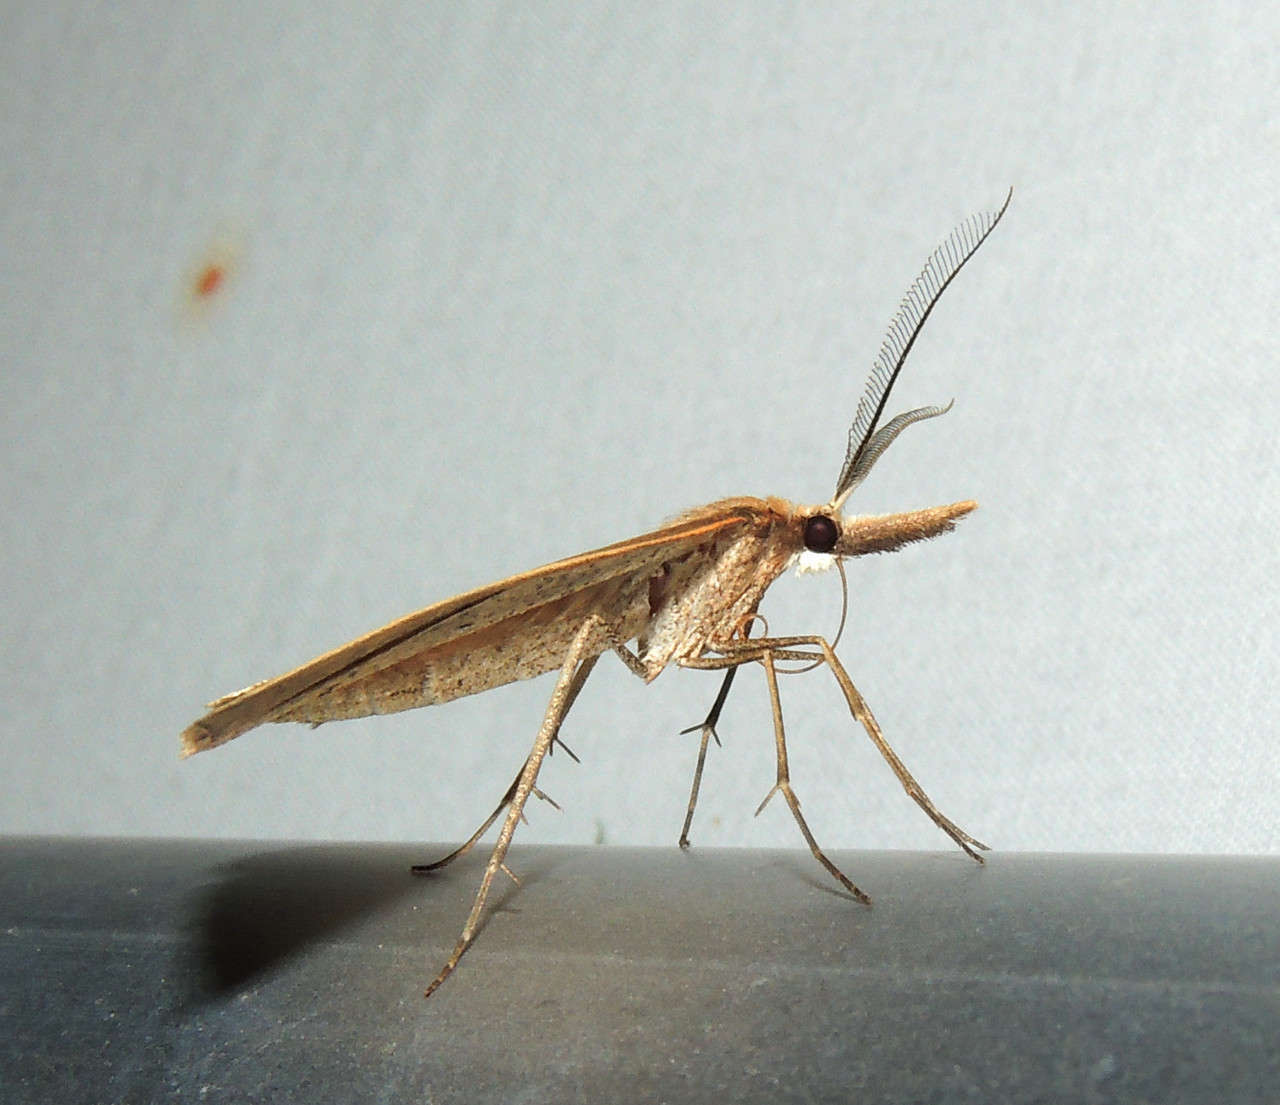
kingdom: Animalia
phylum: Arthropoda
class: Insecta
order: Lepidoptera
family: Geometridae
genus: Epidesmia
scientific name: Epidesmia hypenaria
